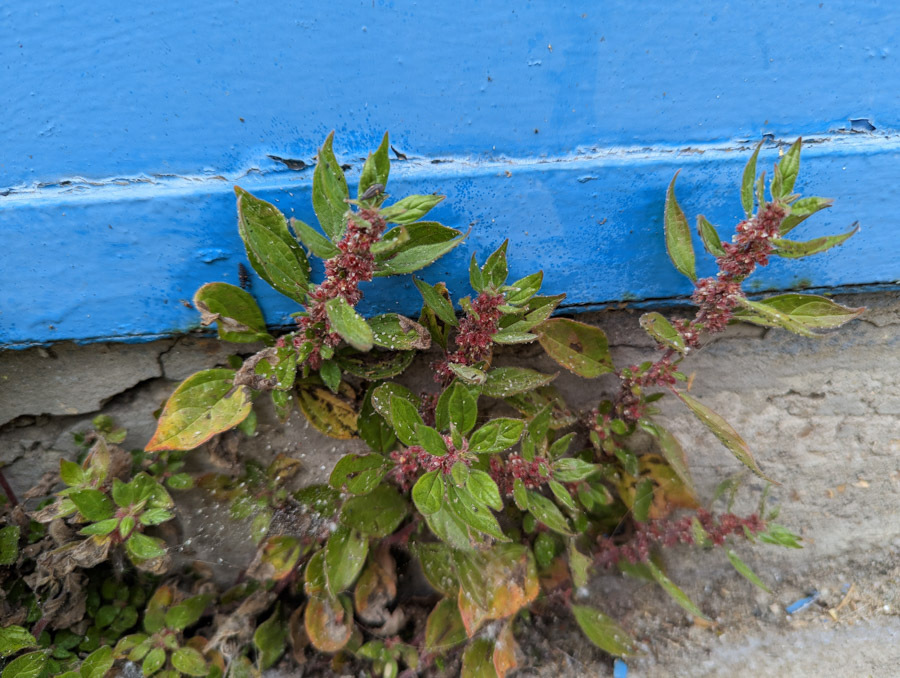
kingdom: Plantae
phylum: Tracheophyta
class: Magnoliopsida
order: Rosales
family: Urticaceae
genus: Parietaria
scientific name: Parietaria judaica
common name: Pellitory-of-the-wall
